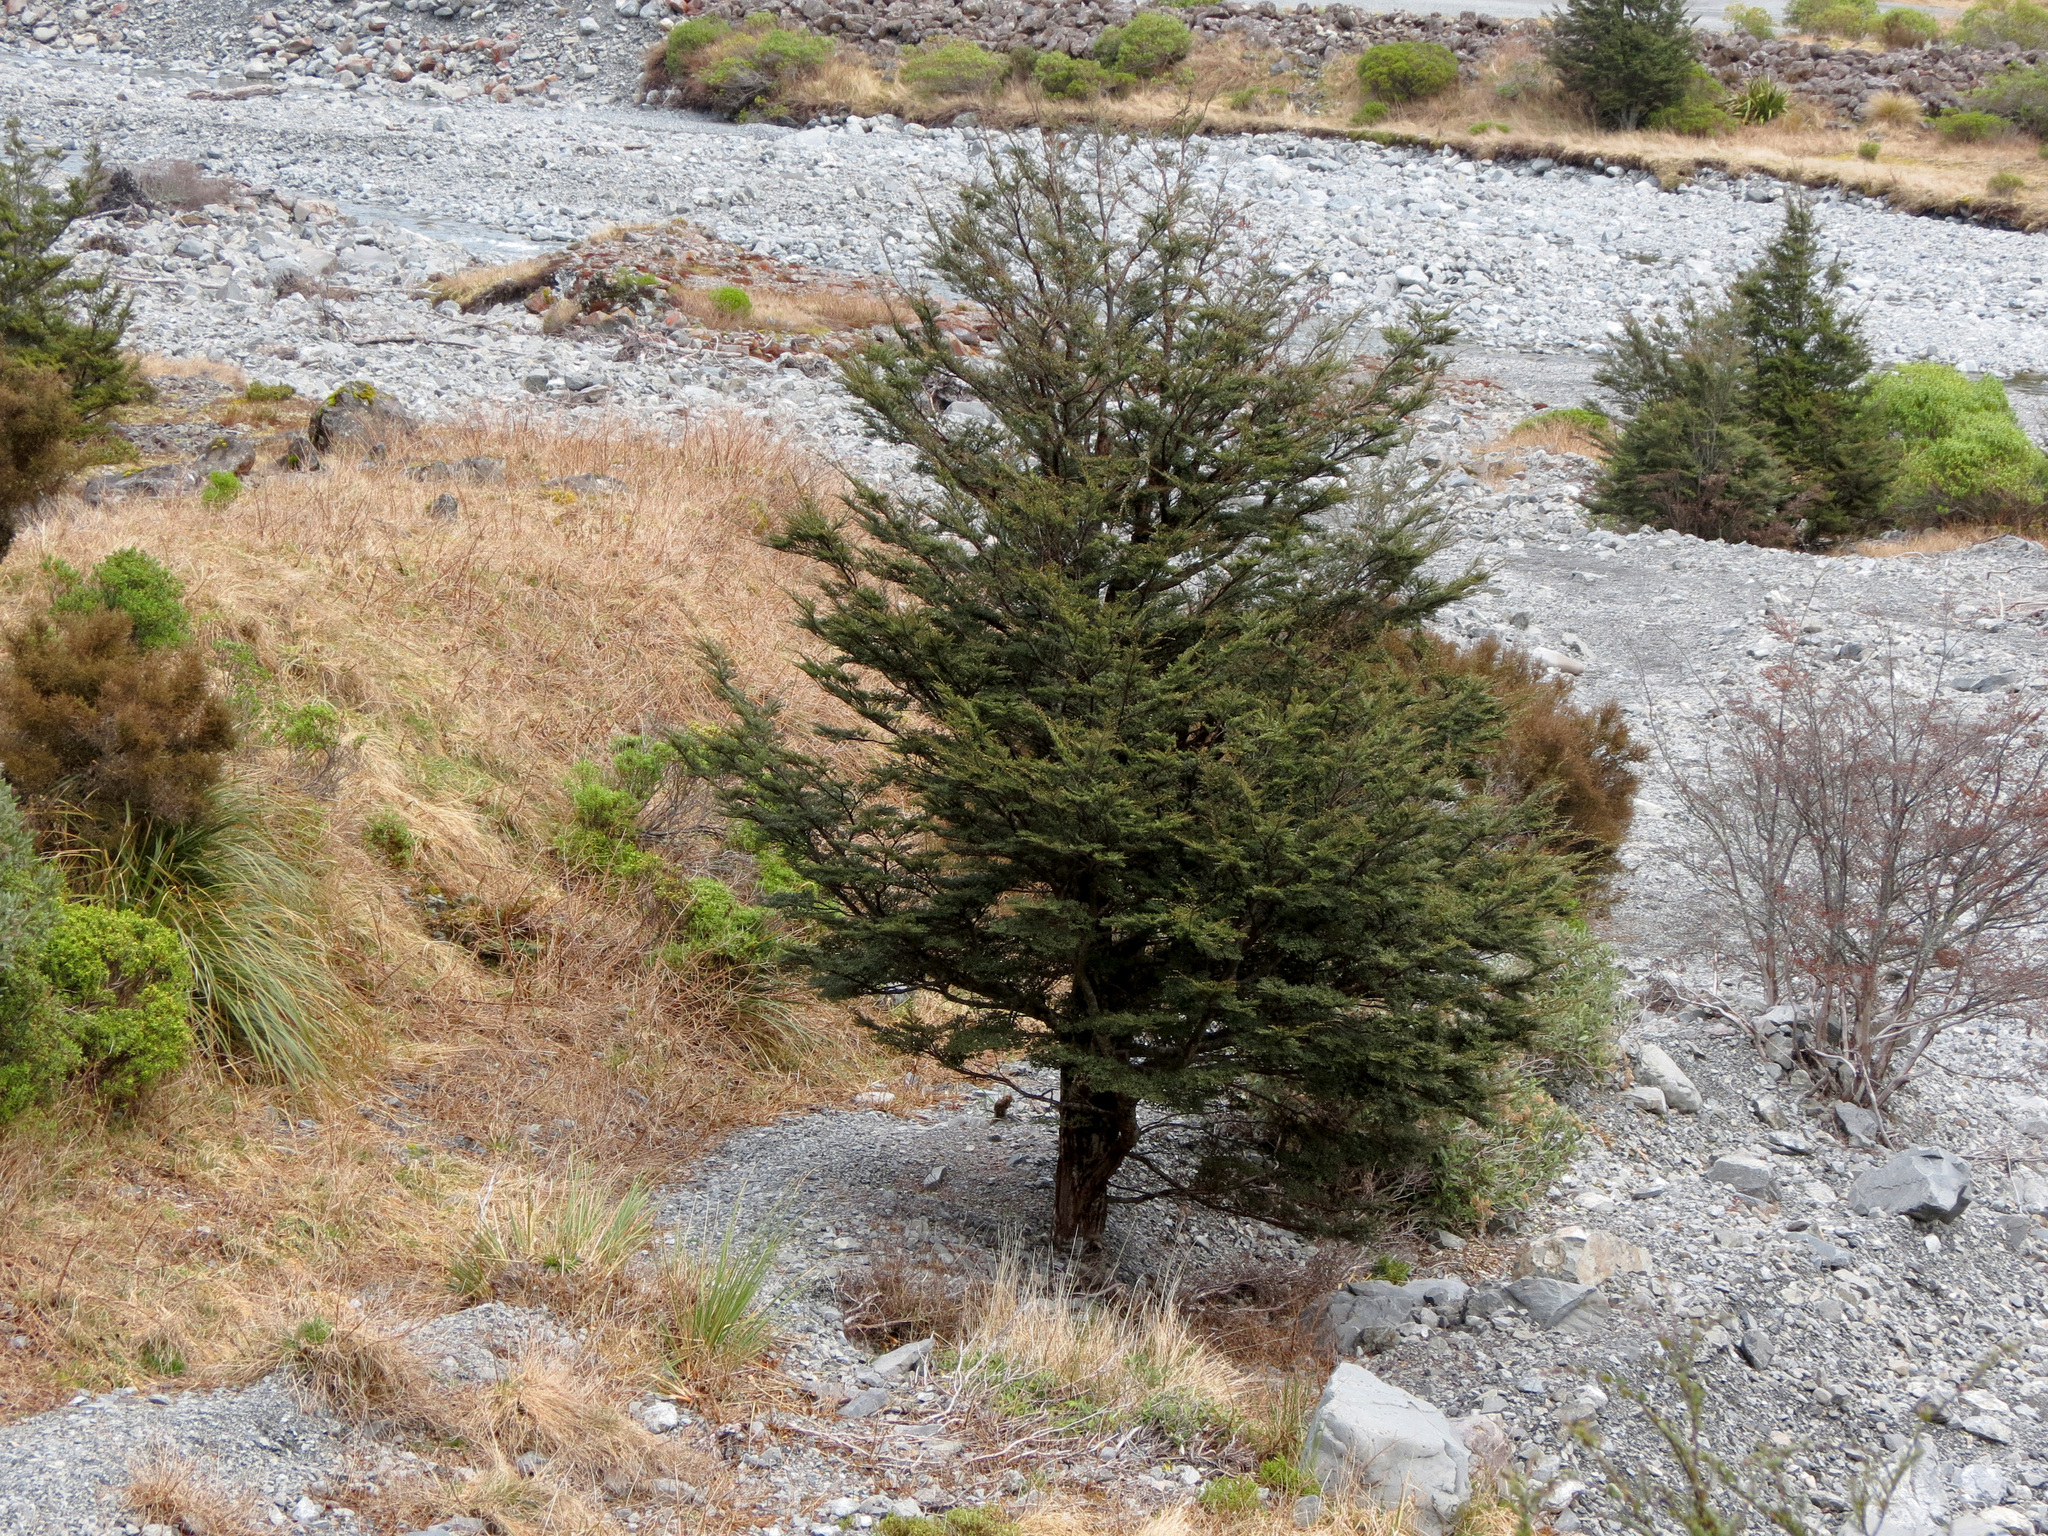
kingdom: Plantae
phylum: Tracheophyta
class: Magnoliopsida
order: Fagales
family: Nothofagaceae
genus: Nothofagus
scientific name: Nothofagus cliffortioides
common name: Mountain beech
